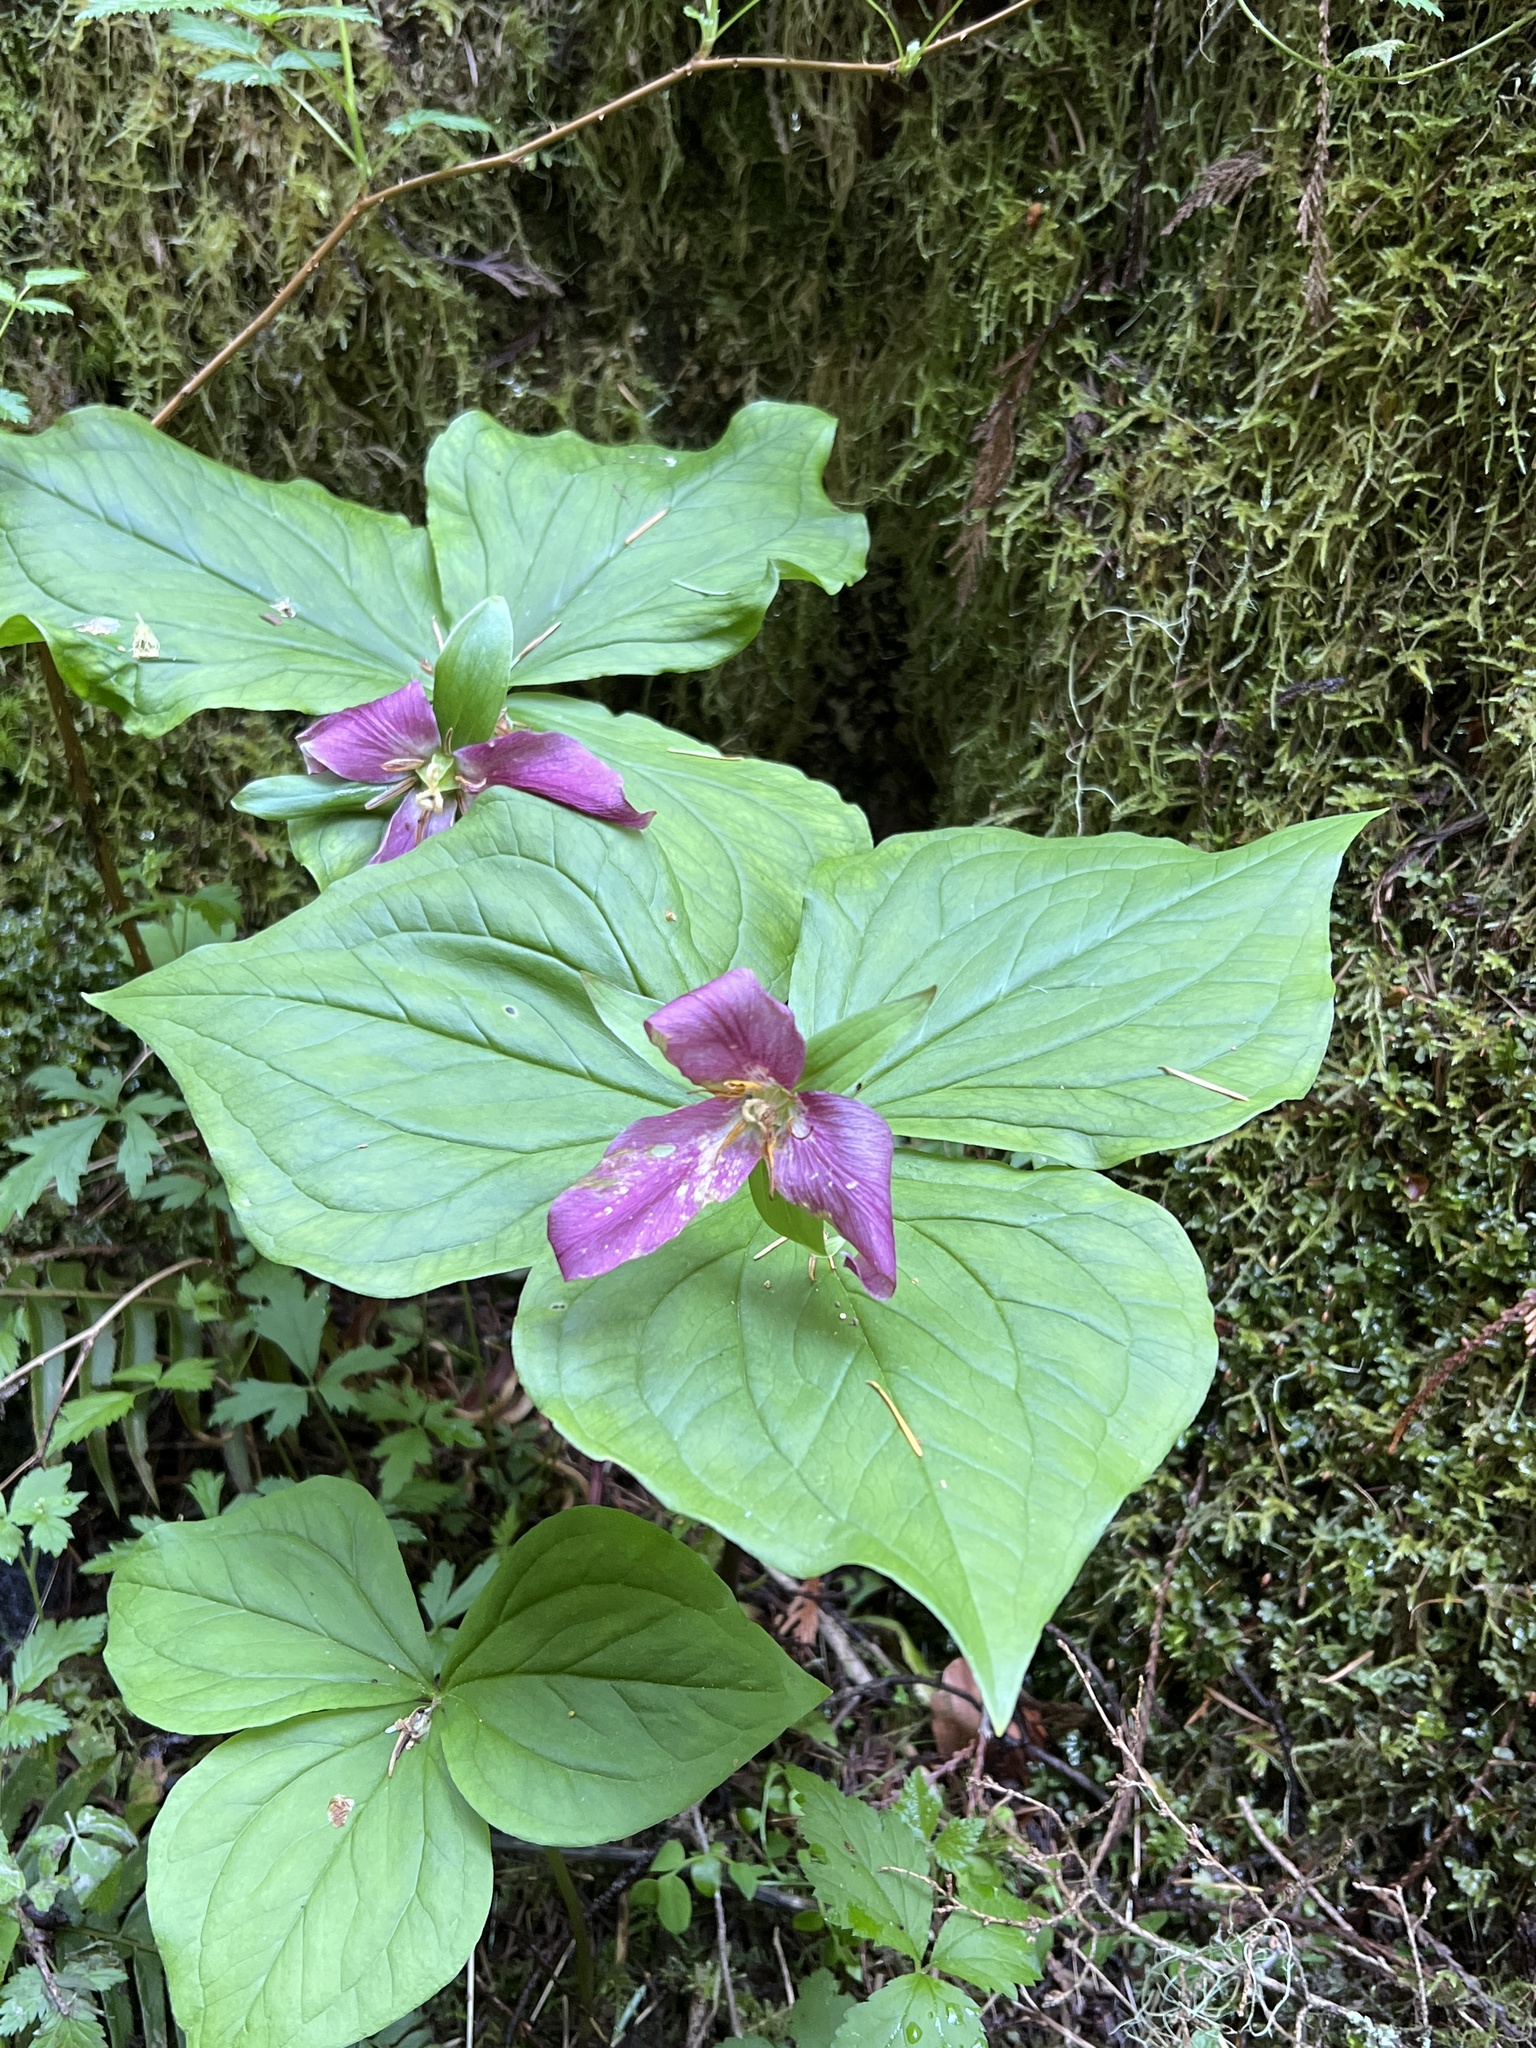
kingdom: Plantae
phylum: Tracheophyta
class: Liliopsida
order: Liliales
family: Melanthiaceae
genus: Trillium
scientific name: Trillium ovatum
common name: Pacific trillium
